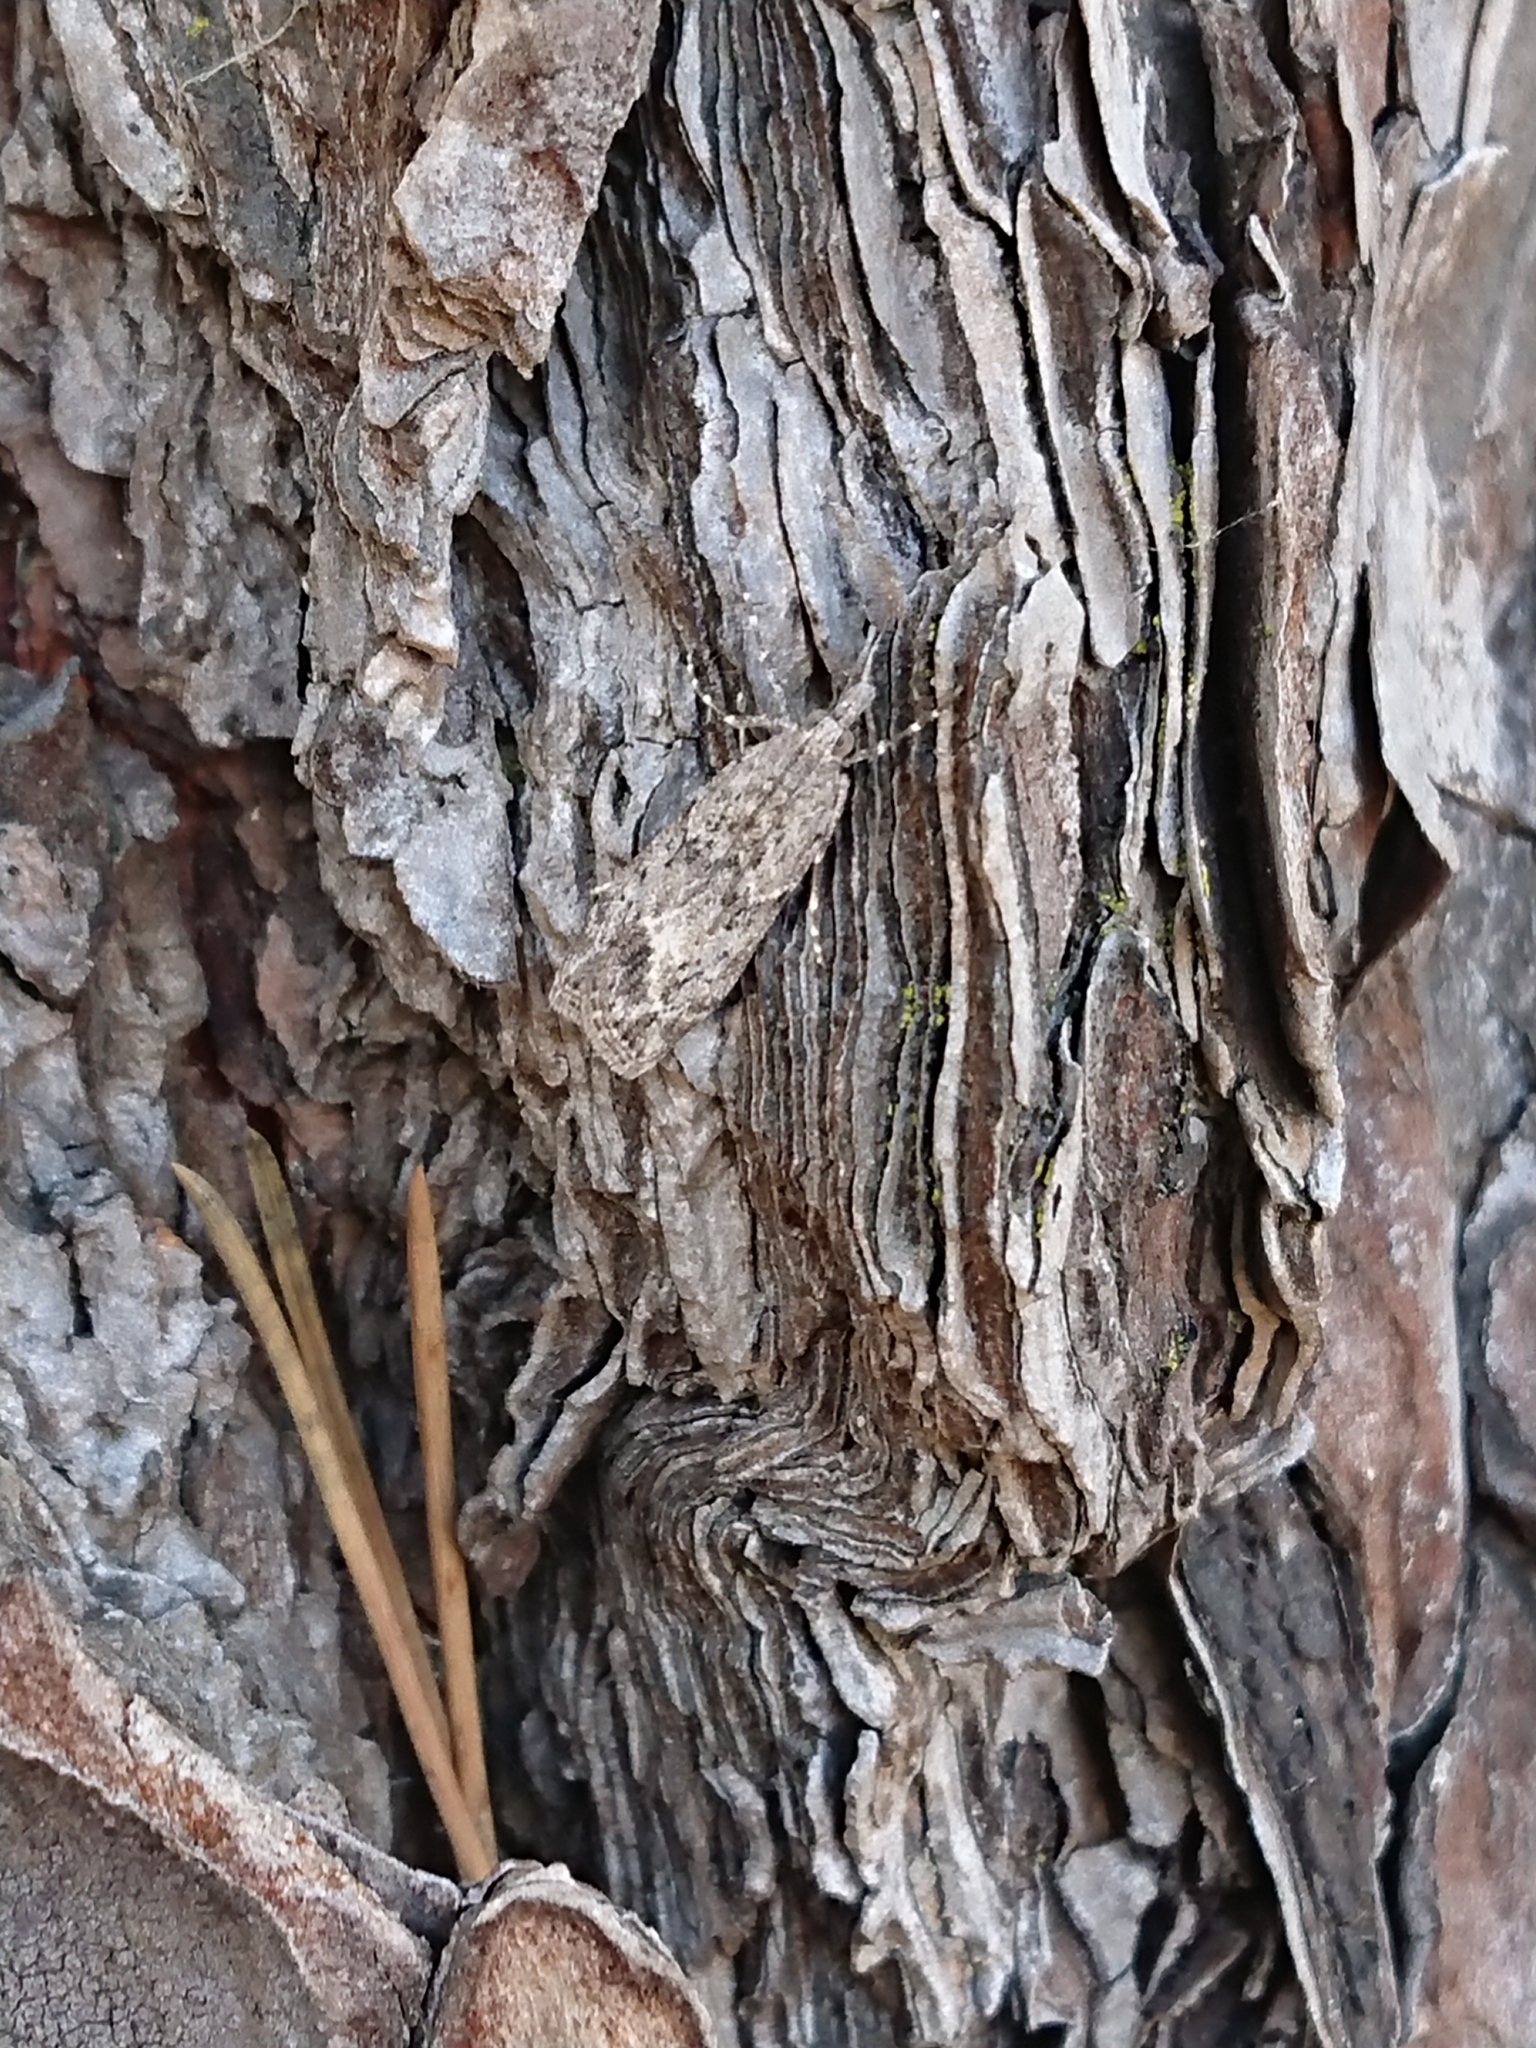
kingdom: Animalia
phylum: Arthropoda
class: Insecta
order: Lepidoptera
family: Crambidae
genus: Eudonia
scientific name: Eudonia rakaiensis
